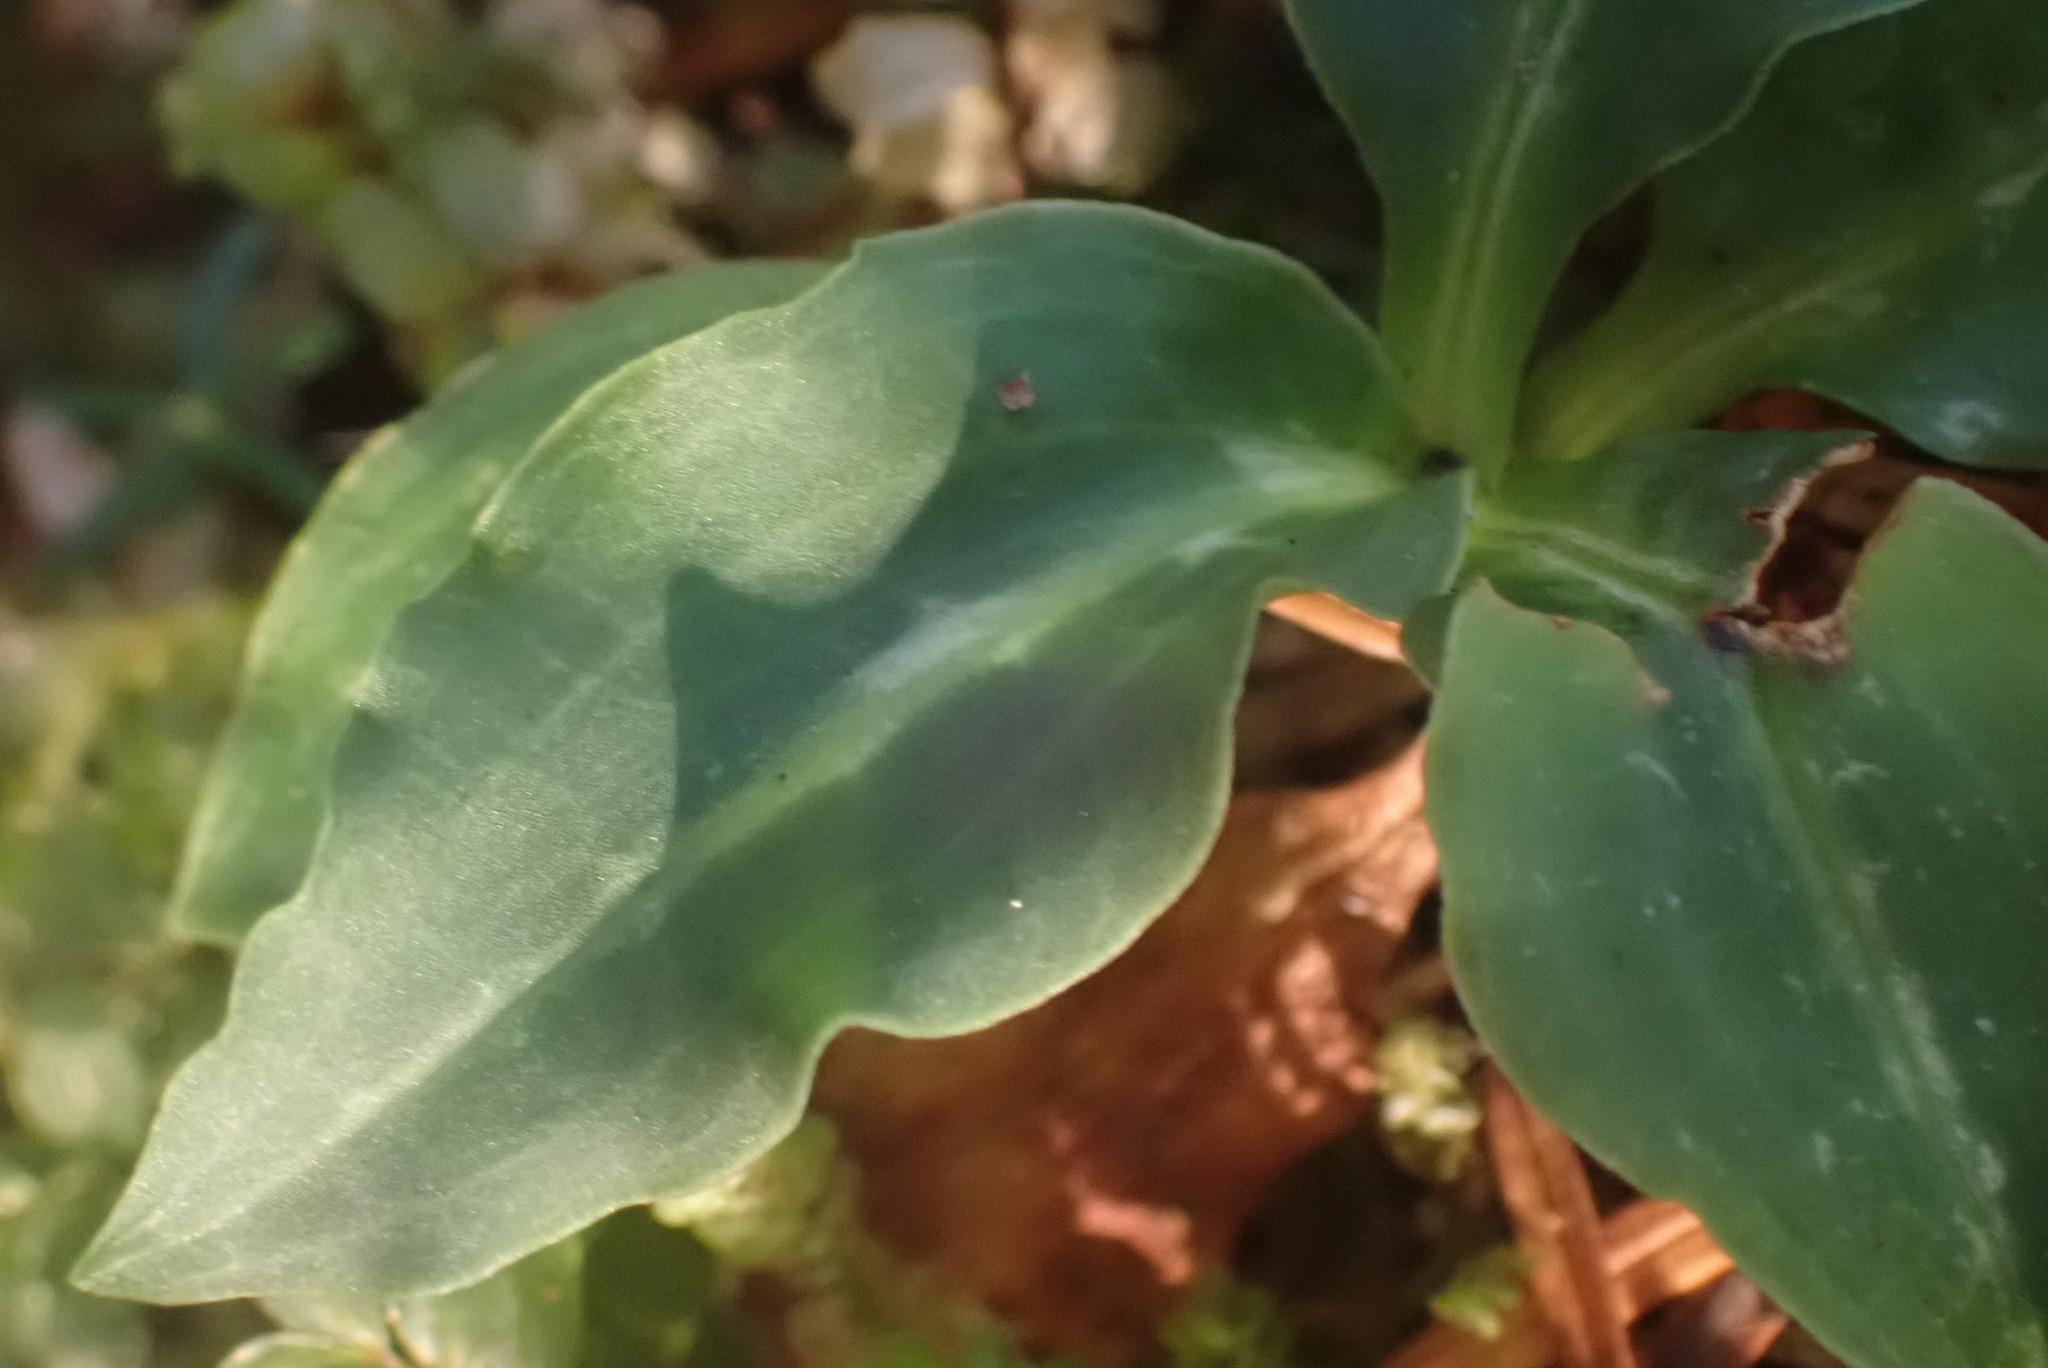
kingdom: Plantae
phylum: Tracheophyta
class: Liliopsida
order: Asparagales
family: Orchidaceae
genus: Goodyera
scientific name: Goodyera oblongifolia
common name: Giant rattlesnake-plantain
